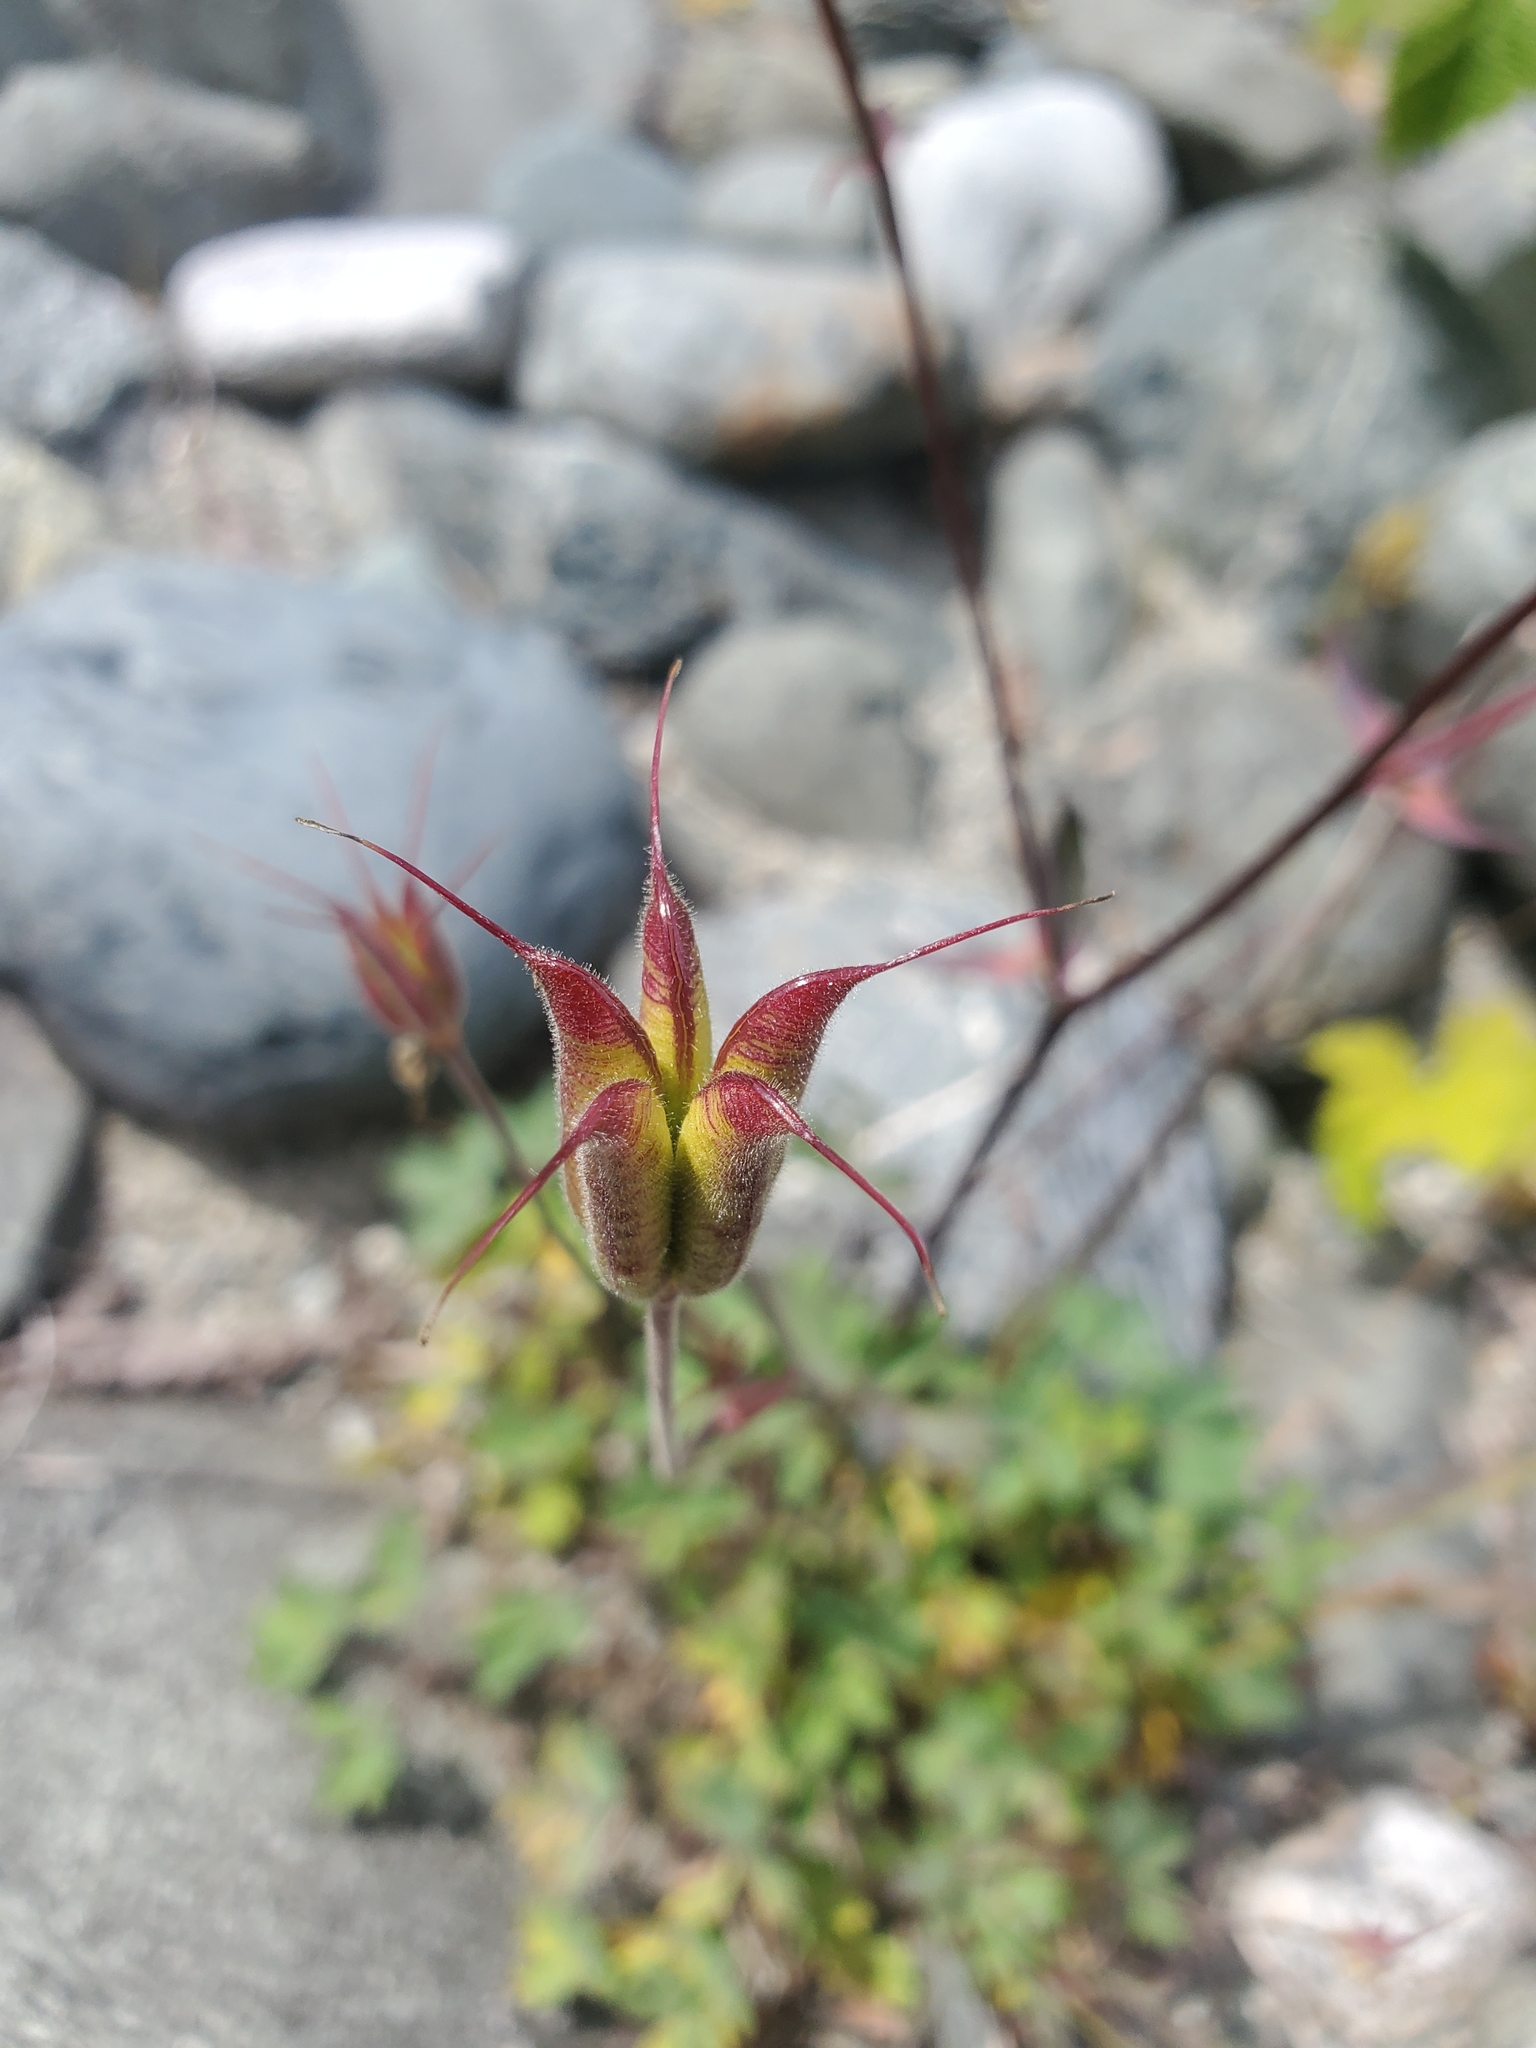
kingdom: Plantae
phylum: Tracheophyta
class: Magnoliopsida
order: Ranunculales
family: Ranunculaceae
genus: Aquilegia
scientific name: Aquilegia formosa
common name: Sitka columbine
